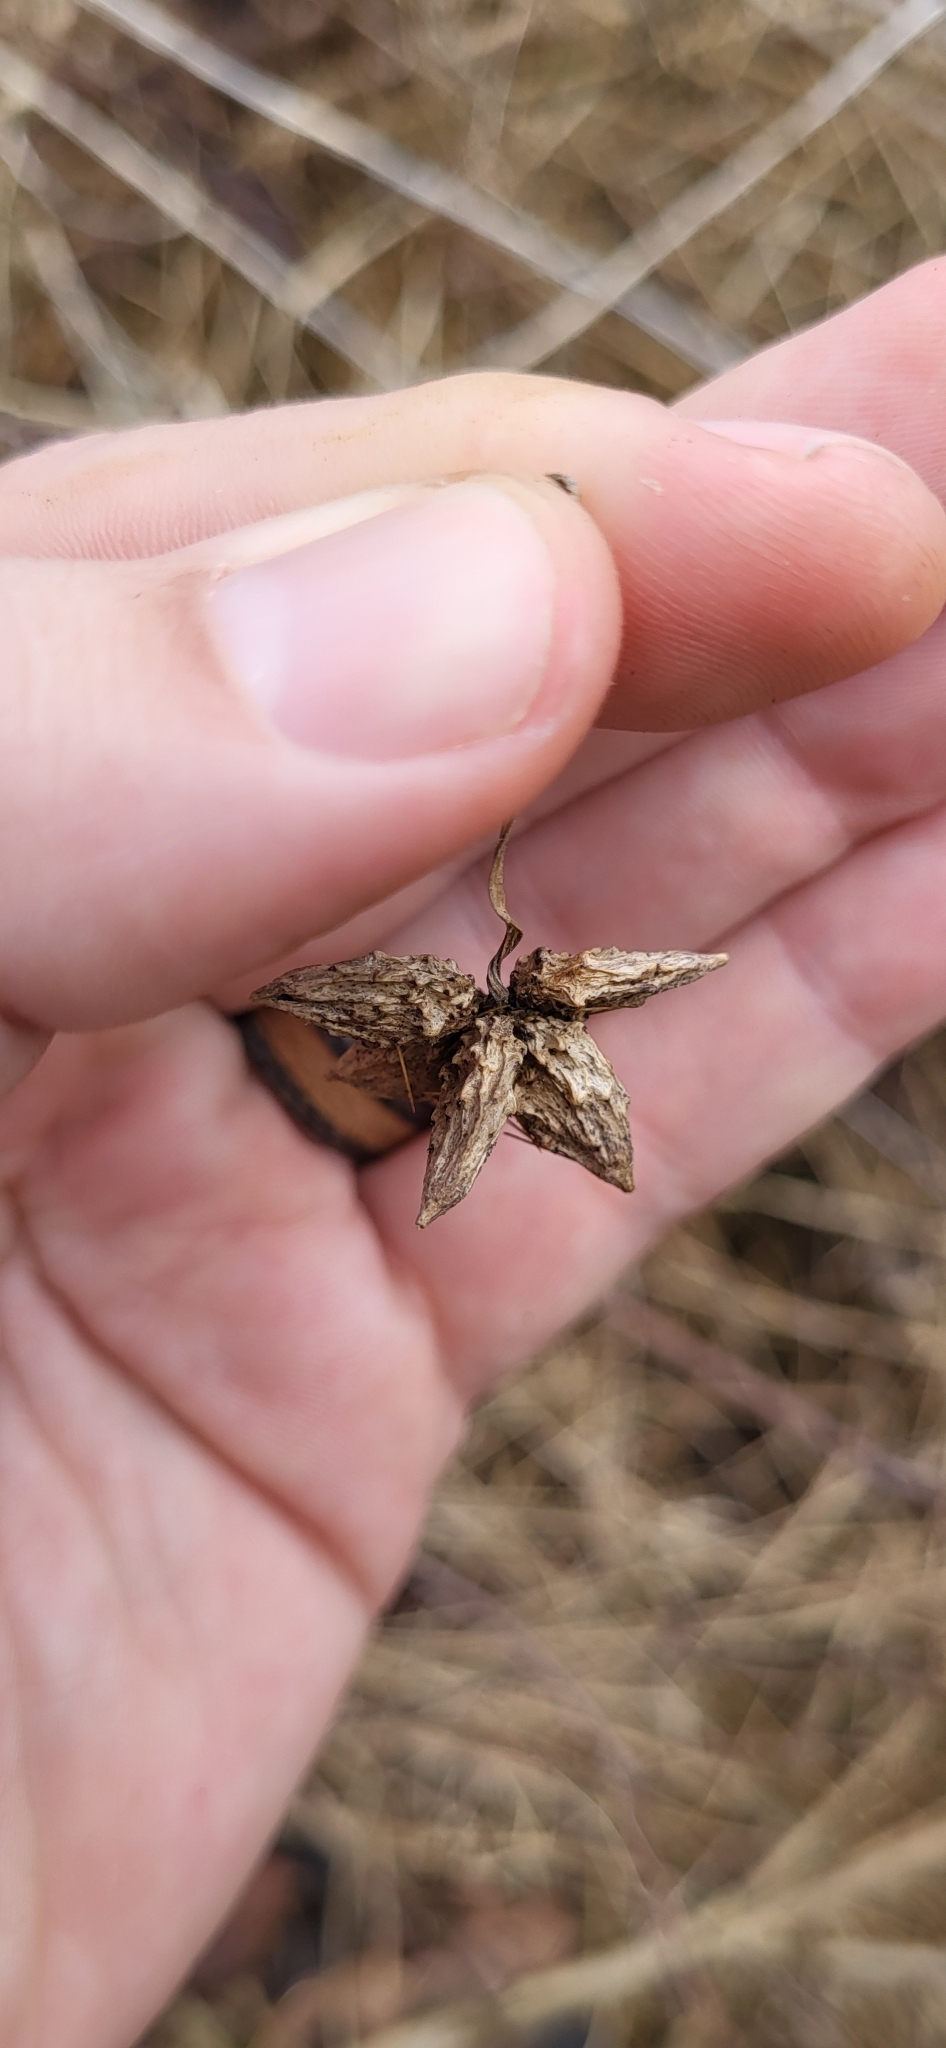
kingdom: Plantae
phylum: Tracheophyta
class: Magnoliopsida
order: Cucurbitales
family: Cucurbitaceae
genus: Sicyos
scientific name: Sicyos angulatus
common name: Angled burr cucumber
